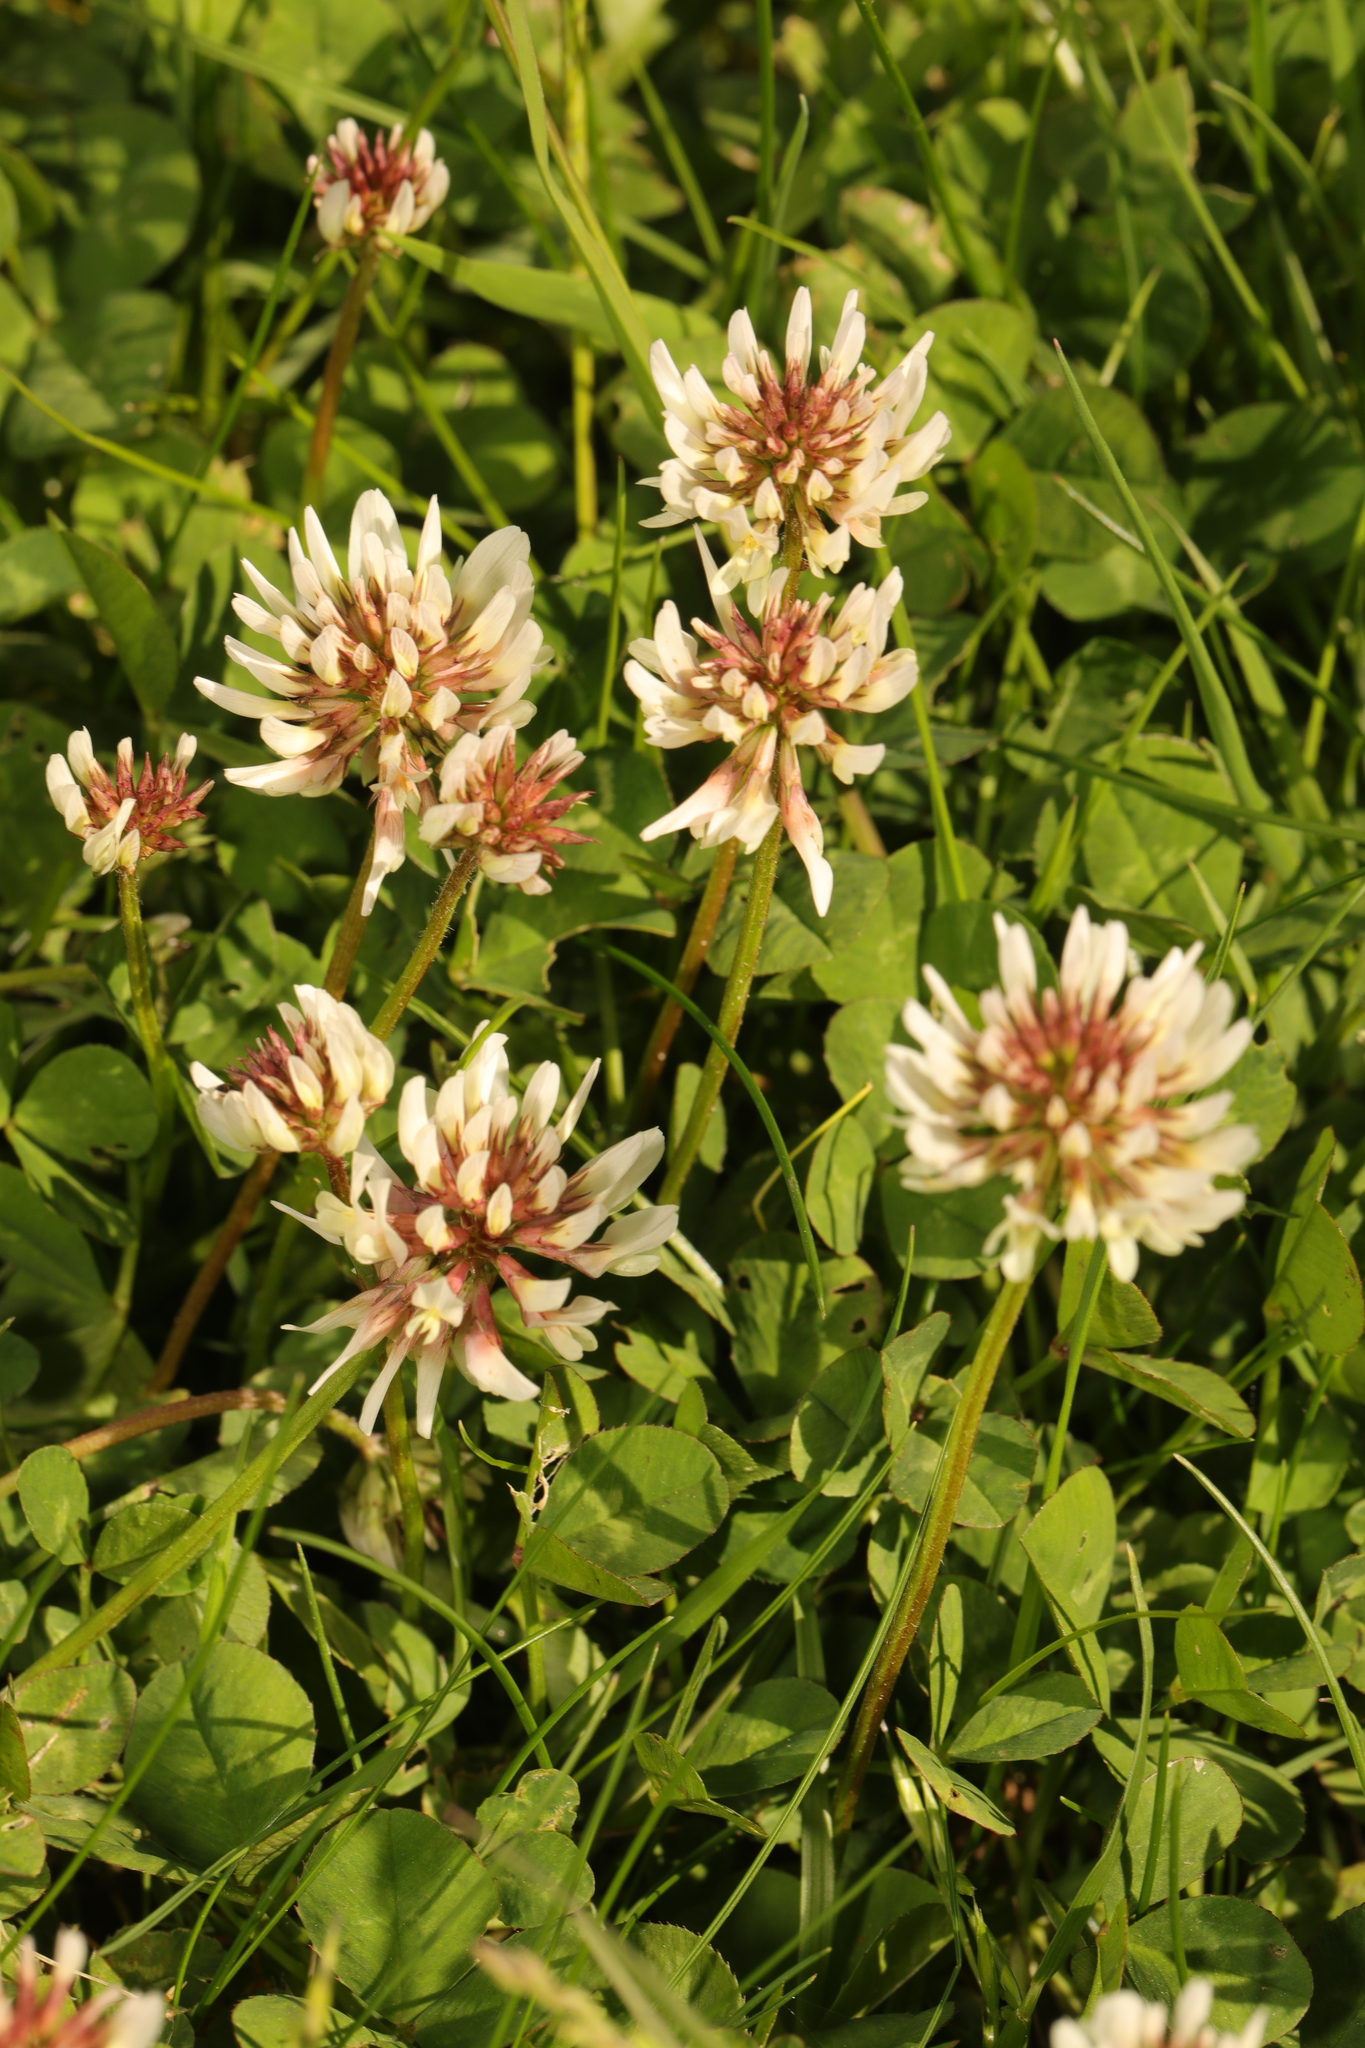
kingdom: Plantae
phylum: Tracheophyta
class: Magnoliopsida
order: Fabales
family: Fabaceae
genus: Trifolium
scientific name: Trifolium repens
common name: White clover
